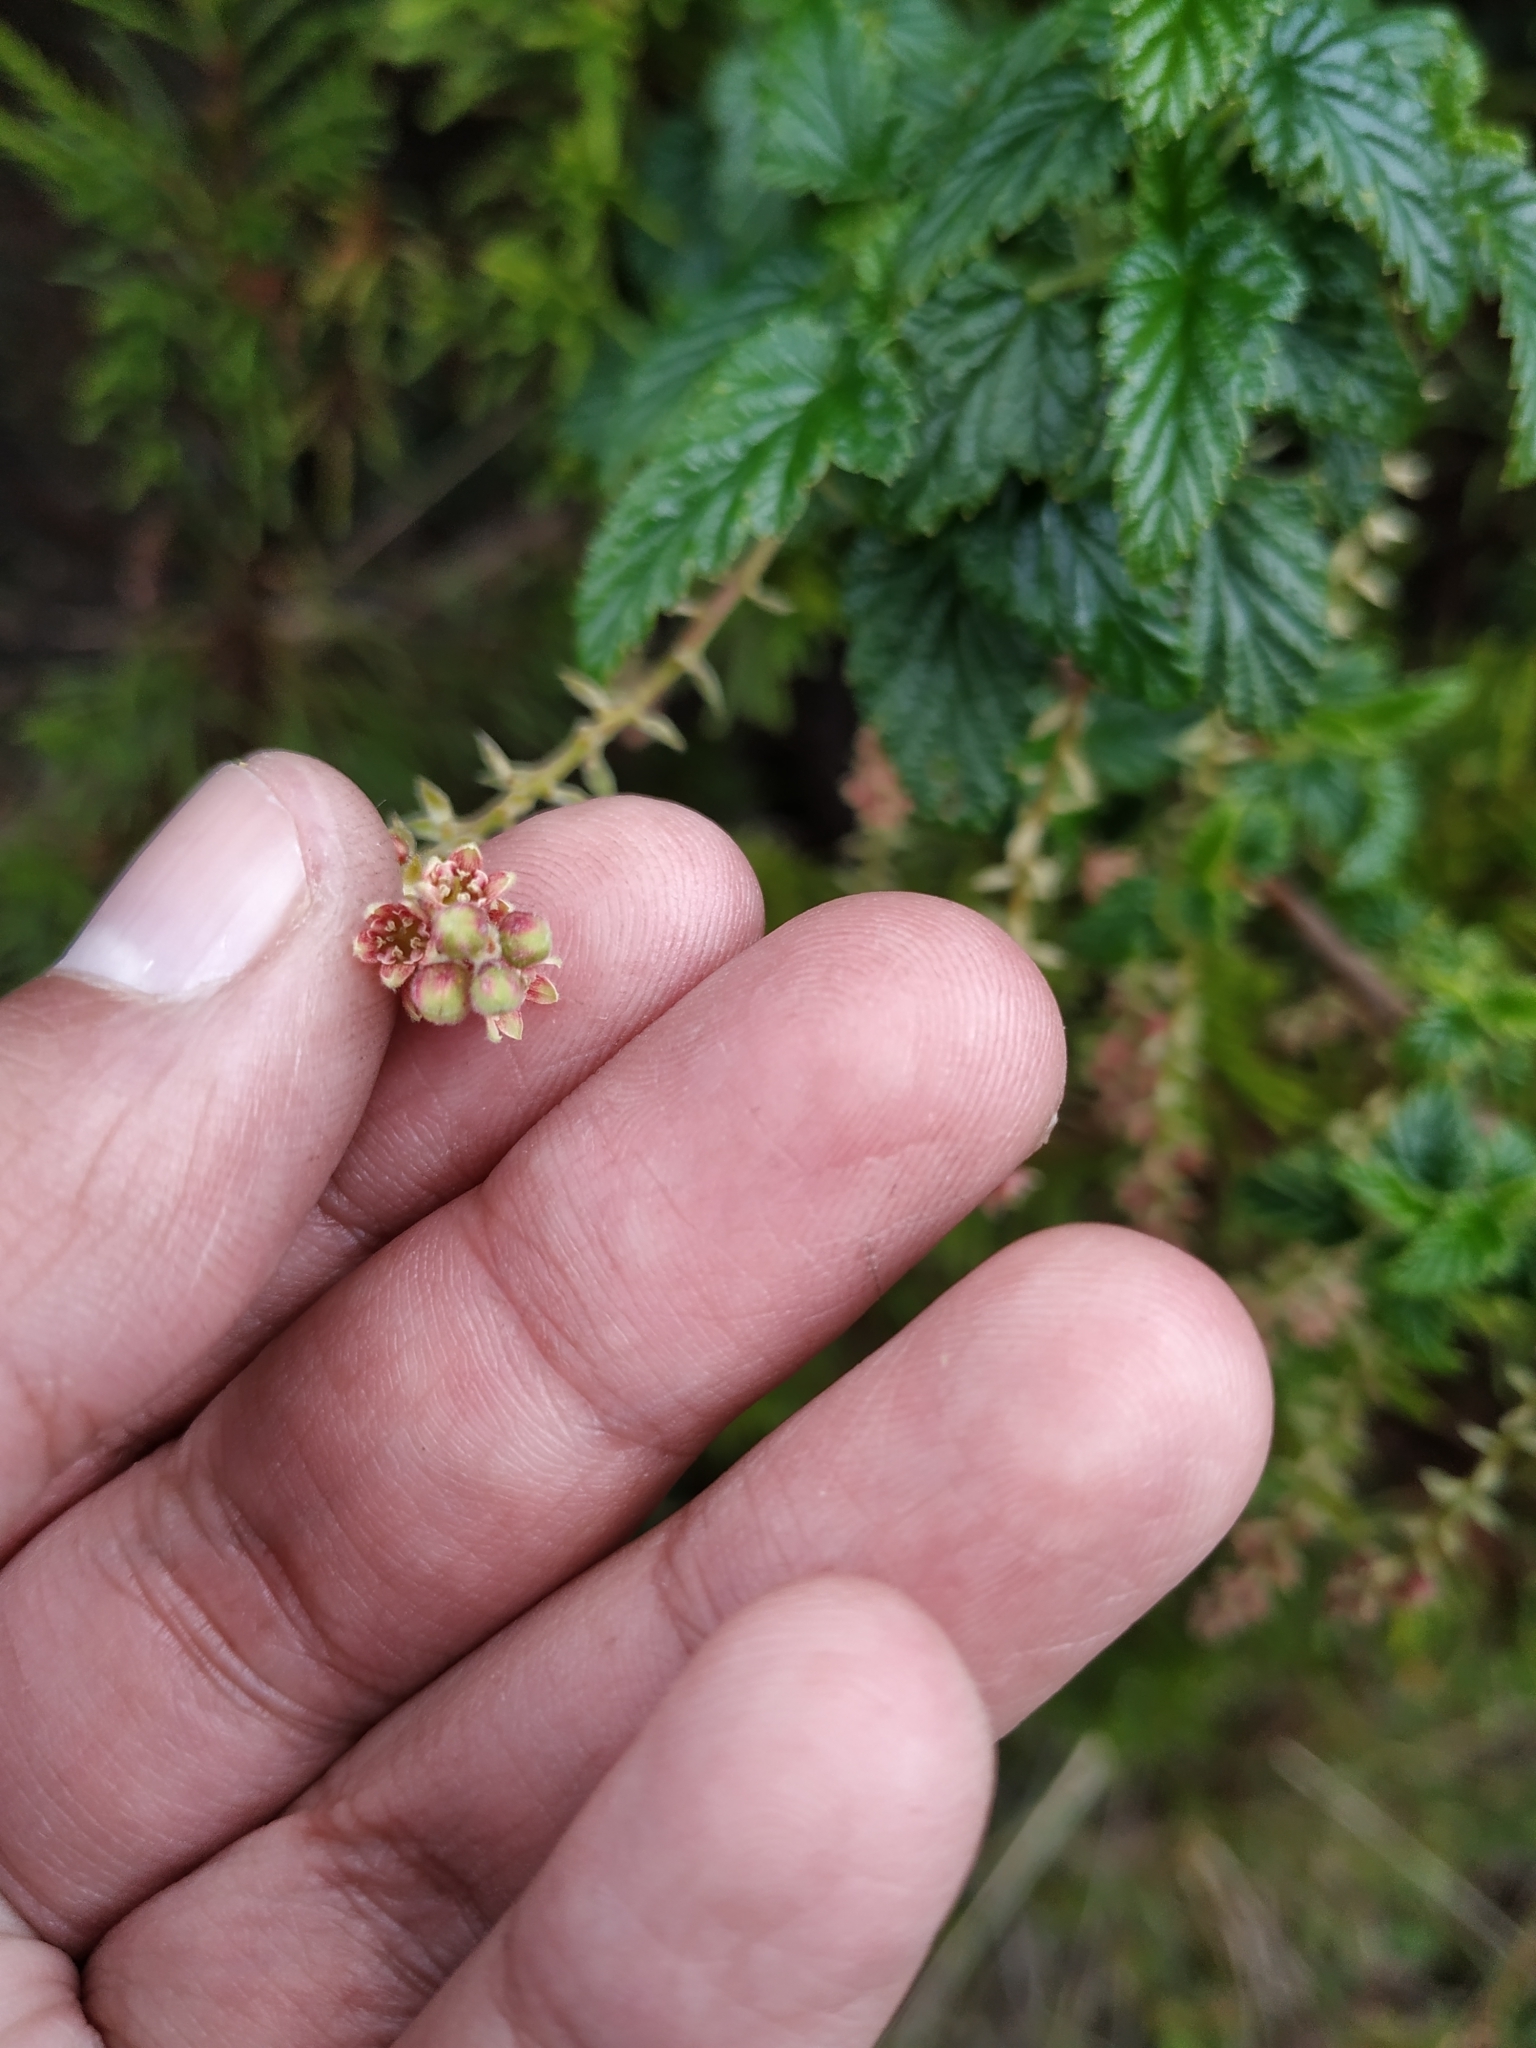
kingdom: Plantae
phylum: Tracheophyta
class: Magnoliopsida
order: Saxifragales
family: Grossulariaceae
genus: Ribes
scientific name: Ribes andicola
